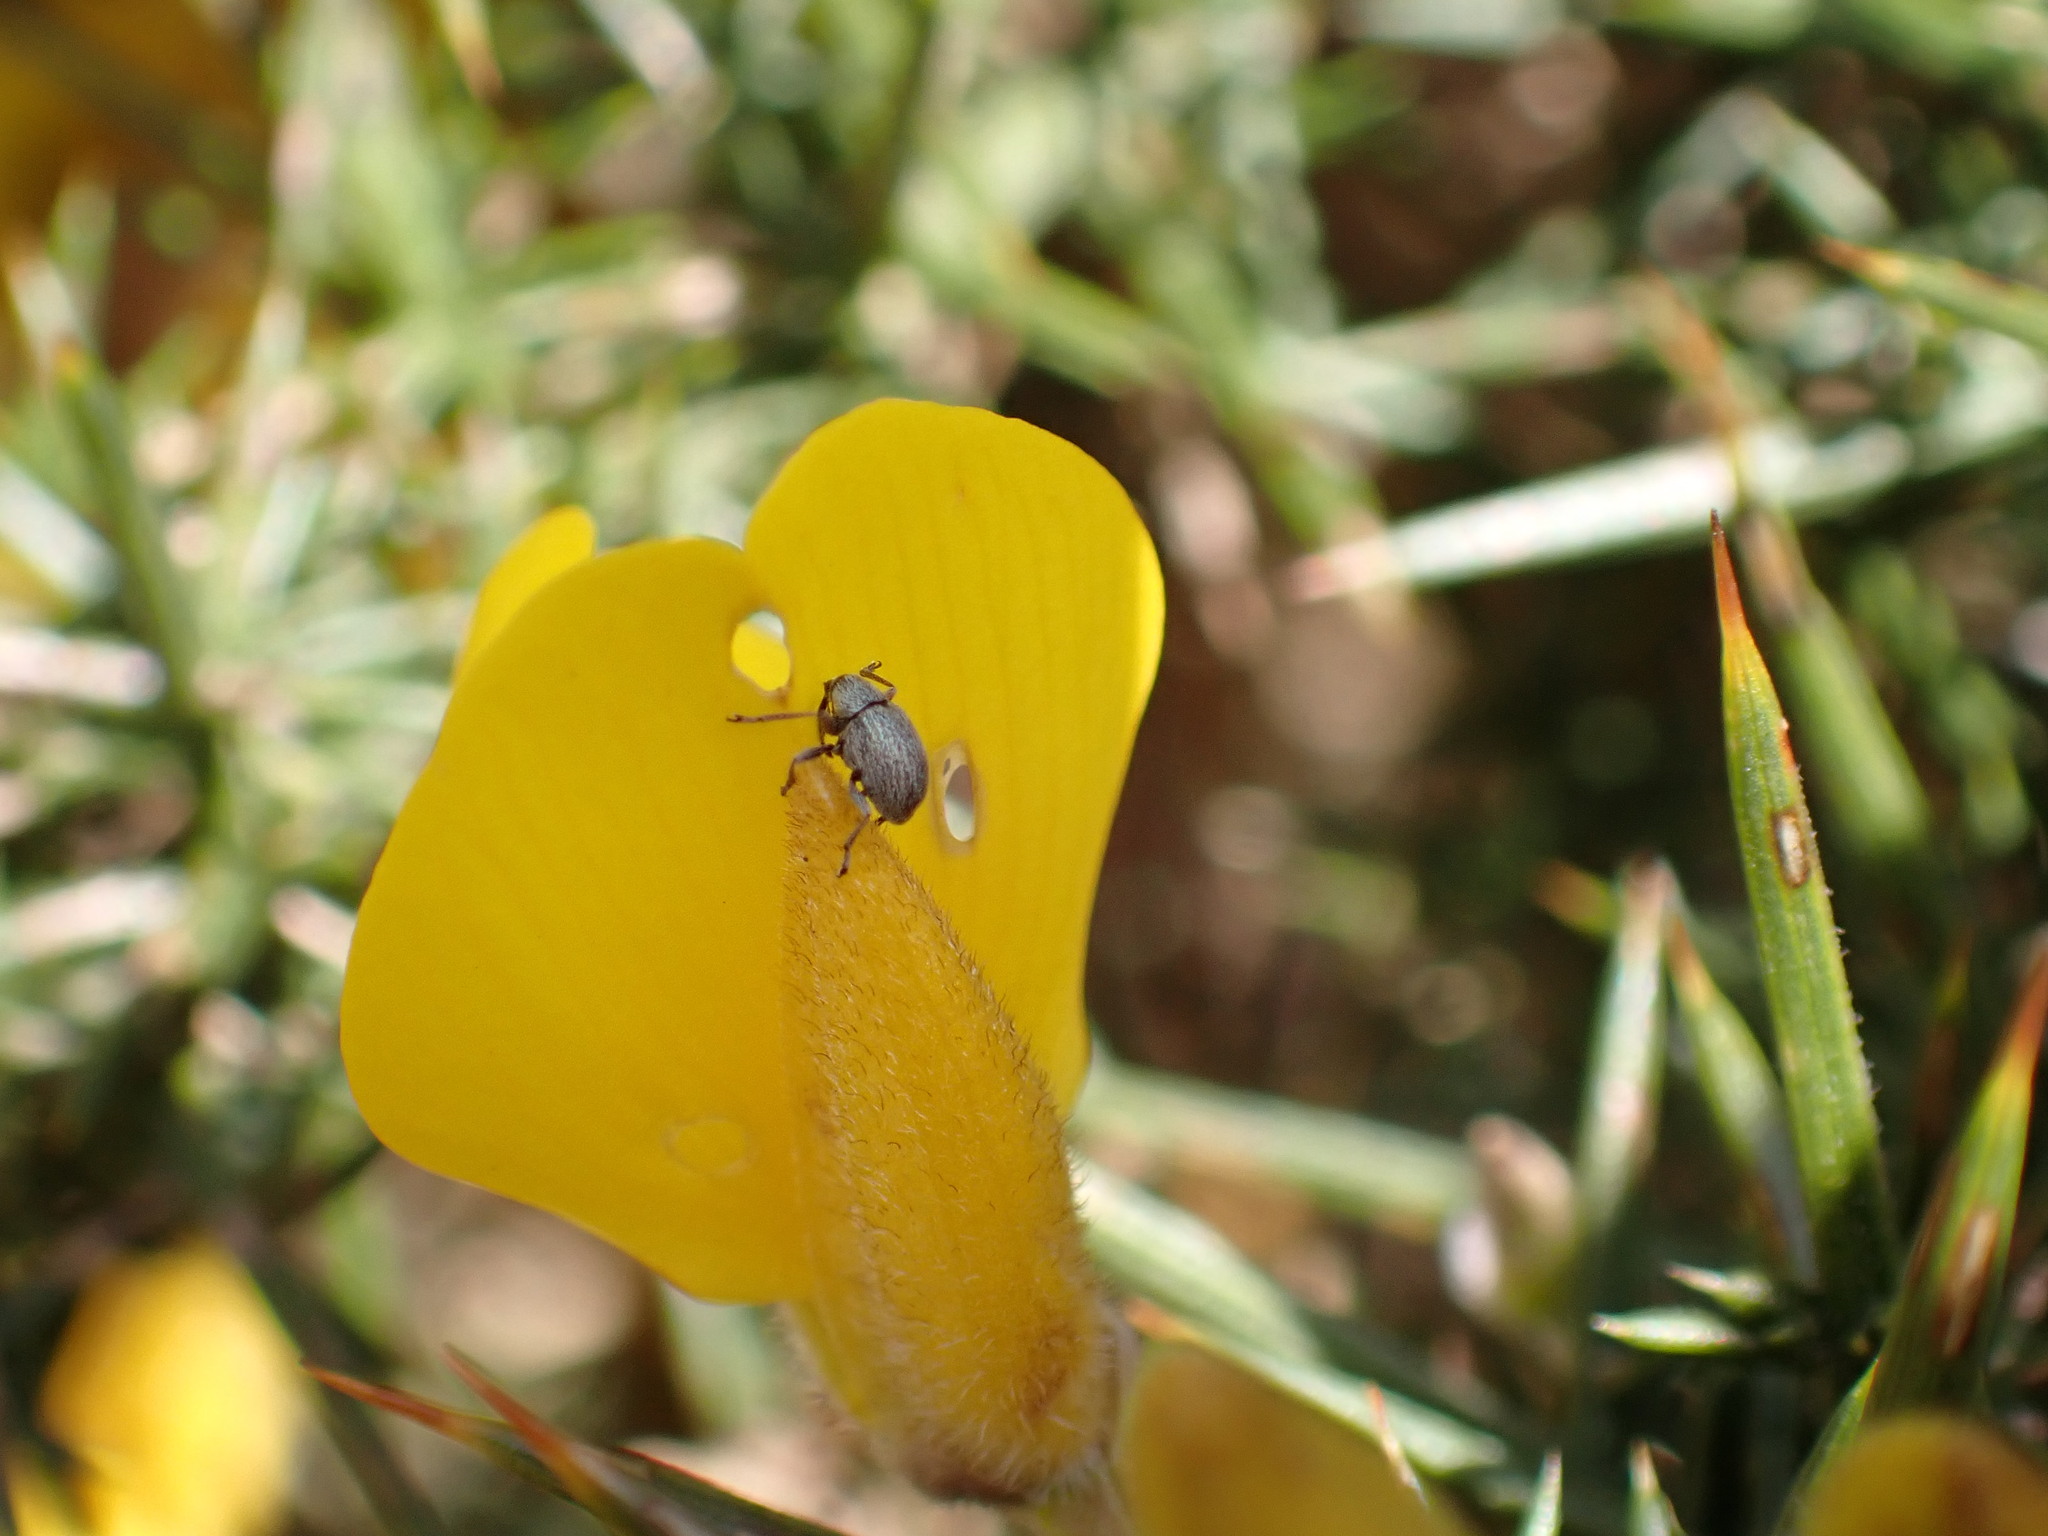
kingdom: Animalia
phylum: Arthropoda
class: Insecta
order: Coleoptera
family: Brentidae
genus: Exapion
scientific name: Exapion ulicis
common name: Gorse seed weevil
